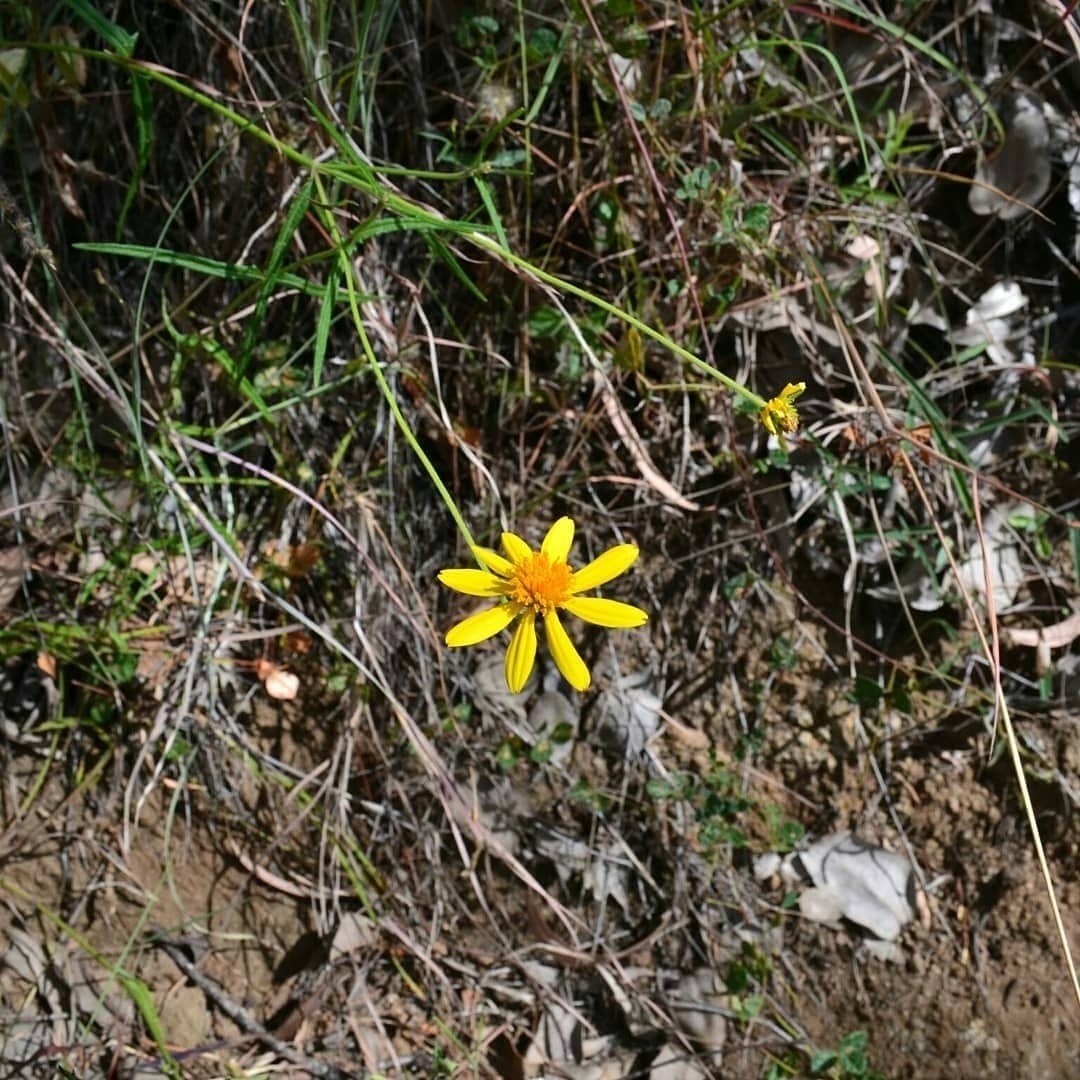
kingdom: Plantae
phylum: Tracheophyta
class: Magnoliopsida
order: Asterales
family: Asteraceae
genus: Apowollastonia
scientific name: Apowollastonia spilanthoides
